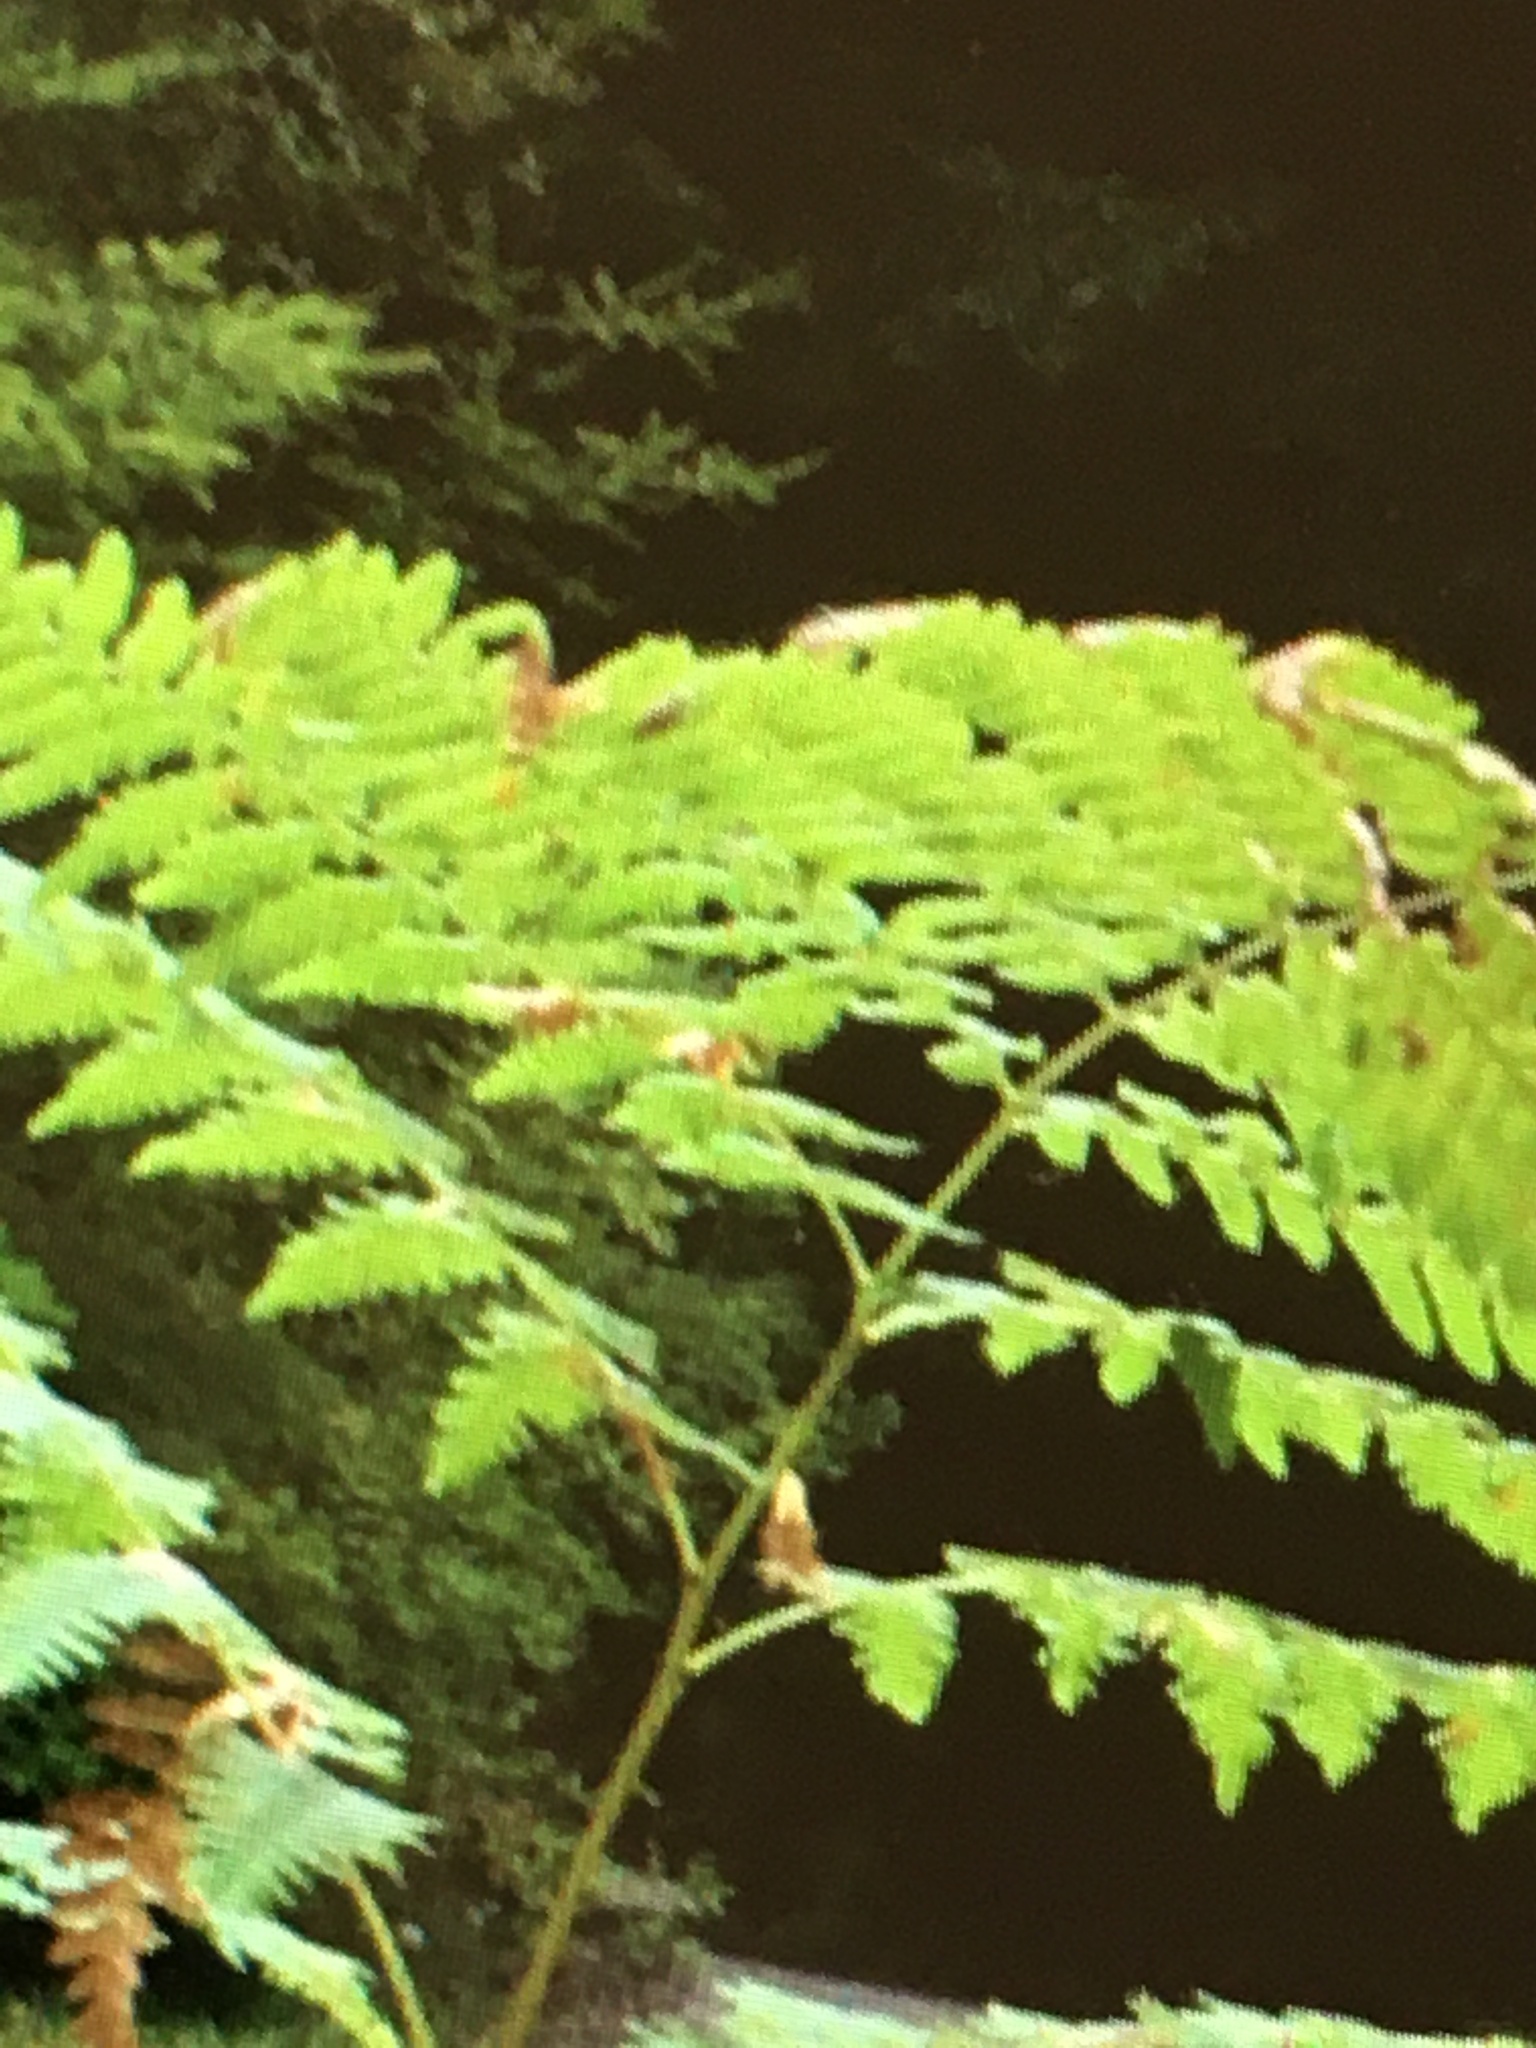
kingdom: Plantae
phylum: Tracheophyta
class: Polypodiopsida
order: Polypodiales
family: Dennstaedtiaceae
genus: Pteridium
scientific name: Pteridium aquilinum
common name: Bracken
